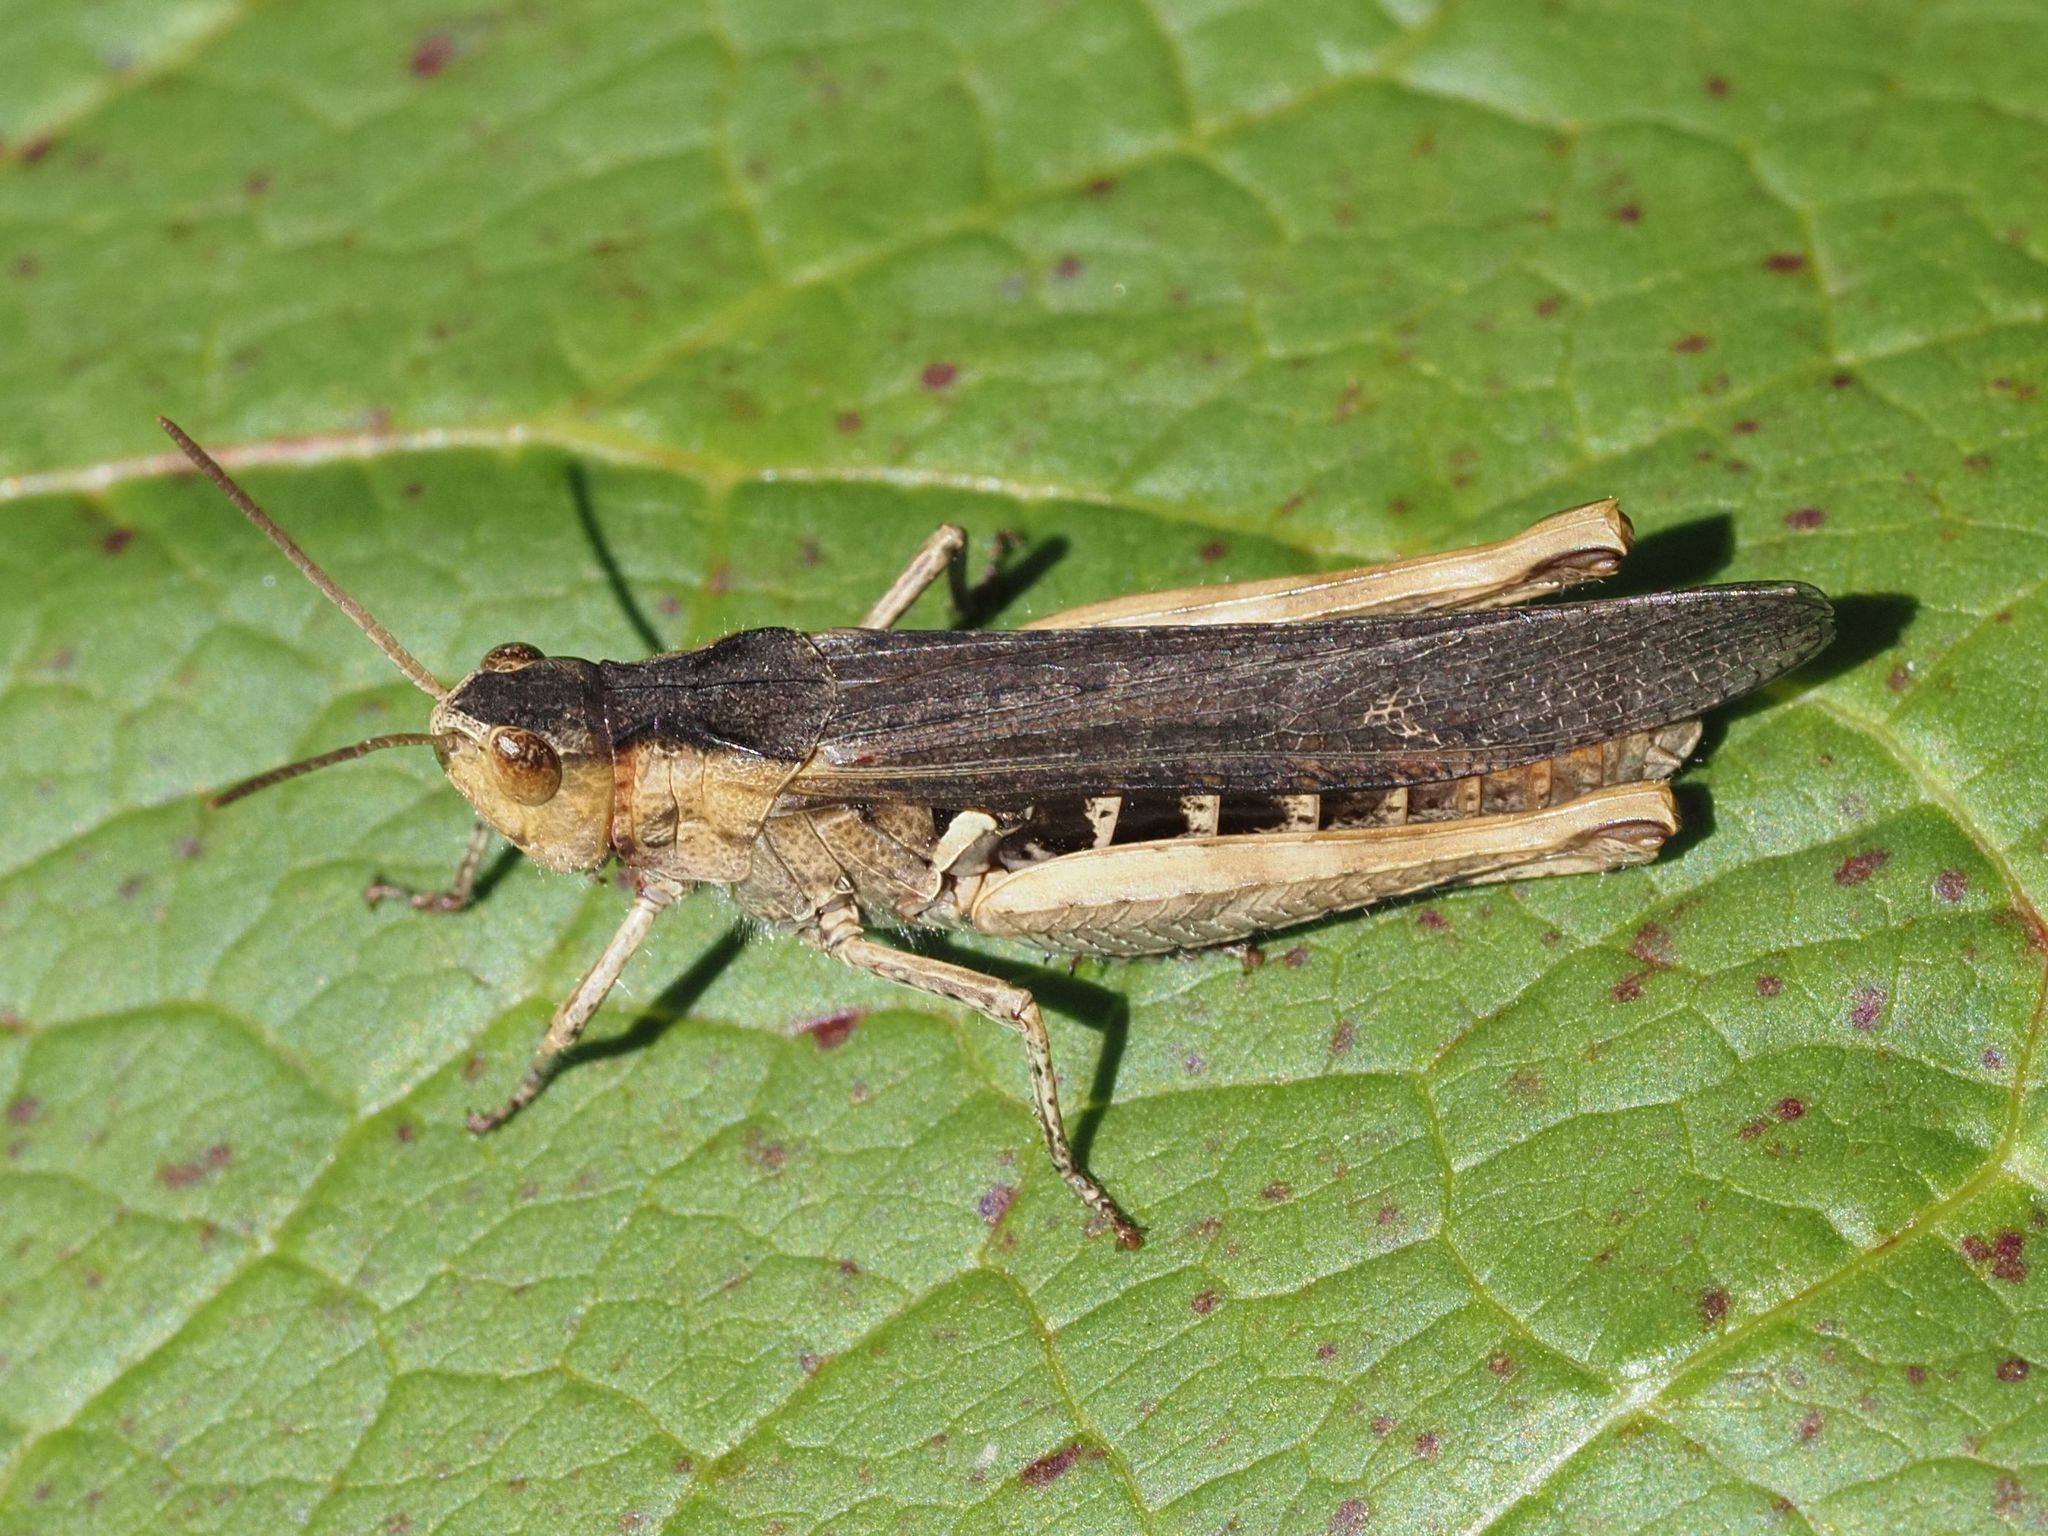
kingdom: Animalia
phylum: Arthropoda
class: Insecta
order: Orthoptera
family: Acrididae
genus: Chorthippus
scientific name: Chorthippus brunneus
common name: Field grasshopper
